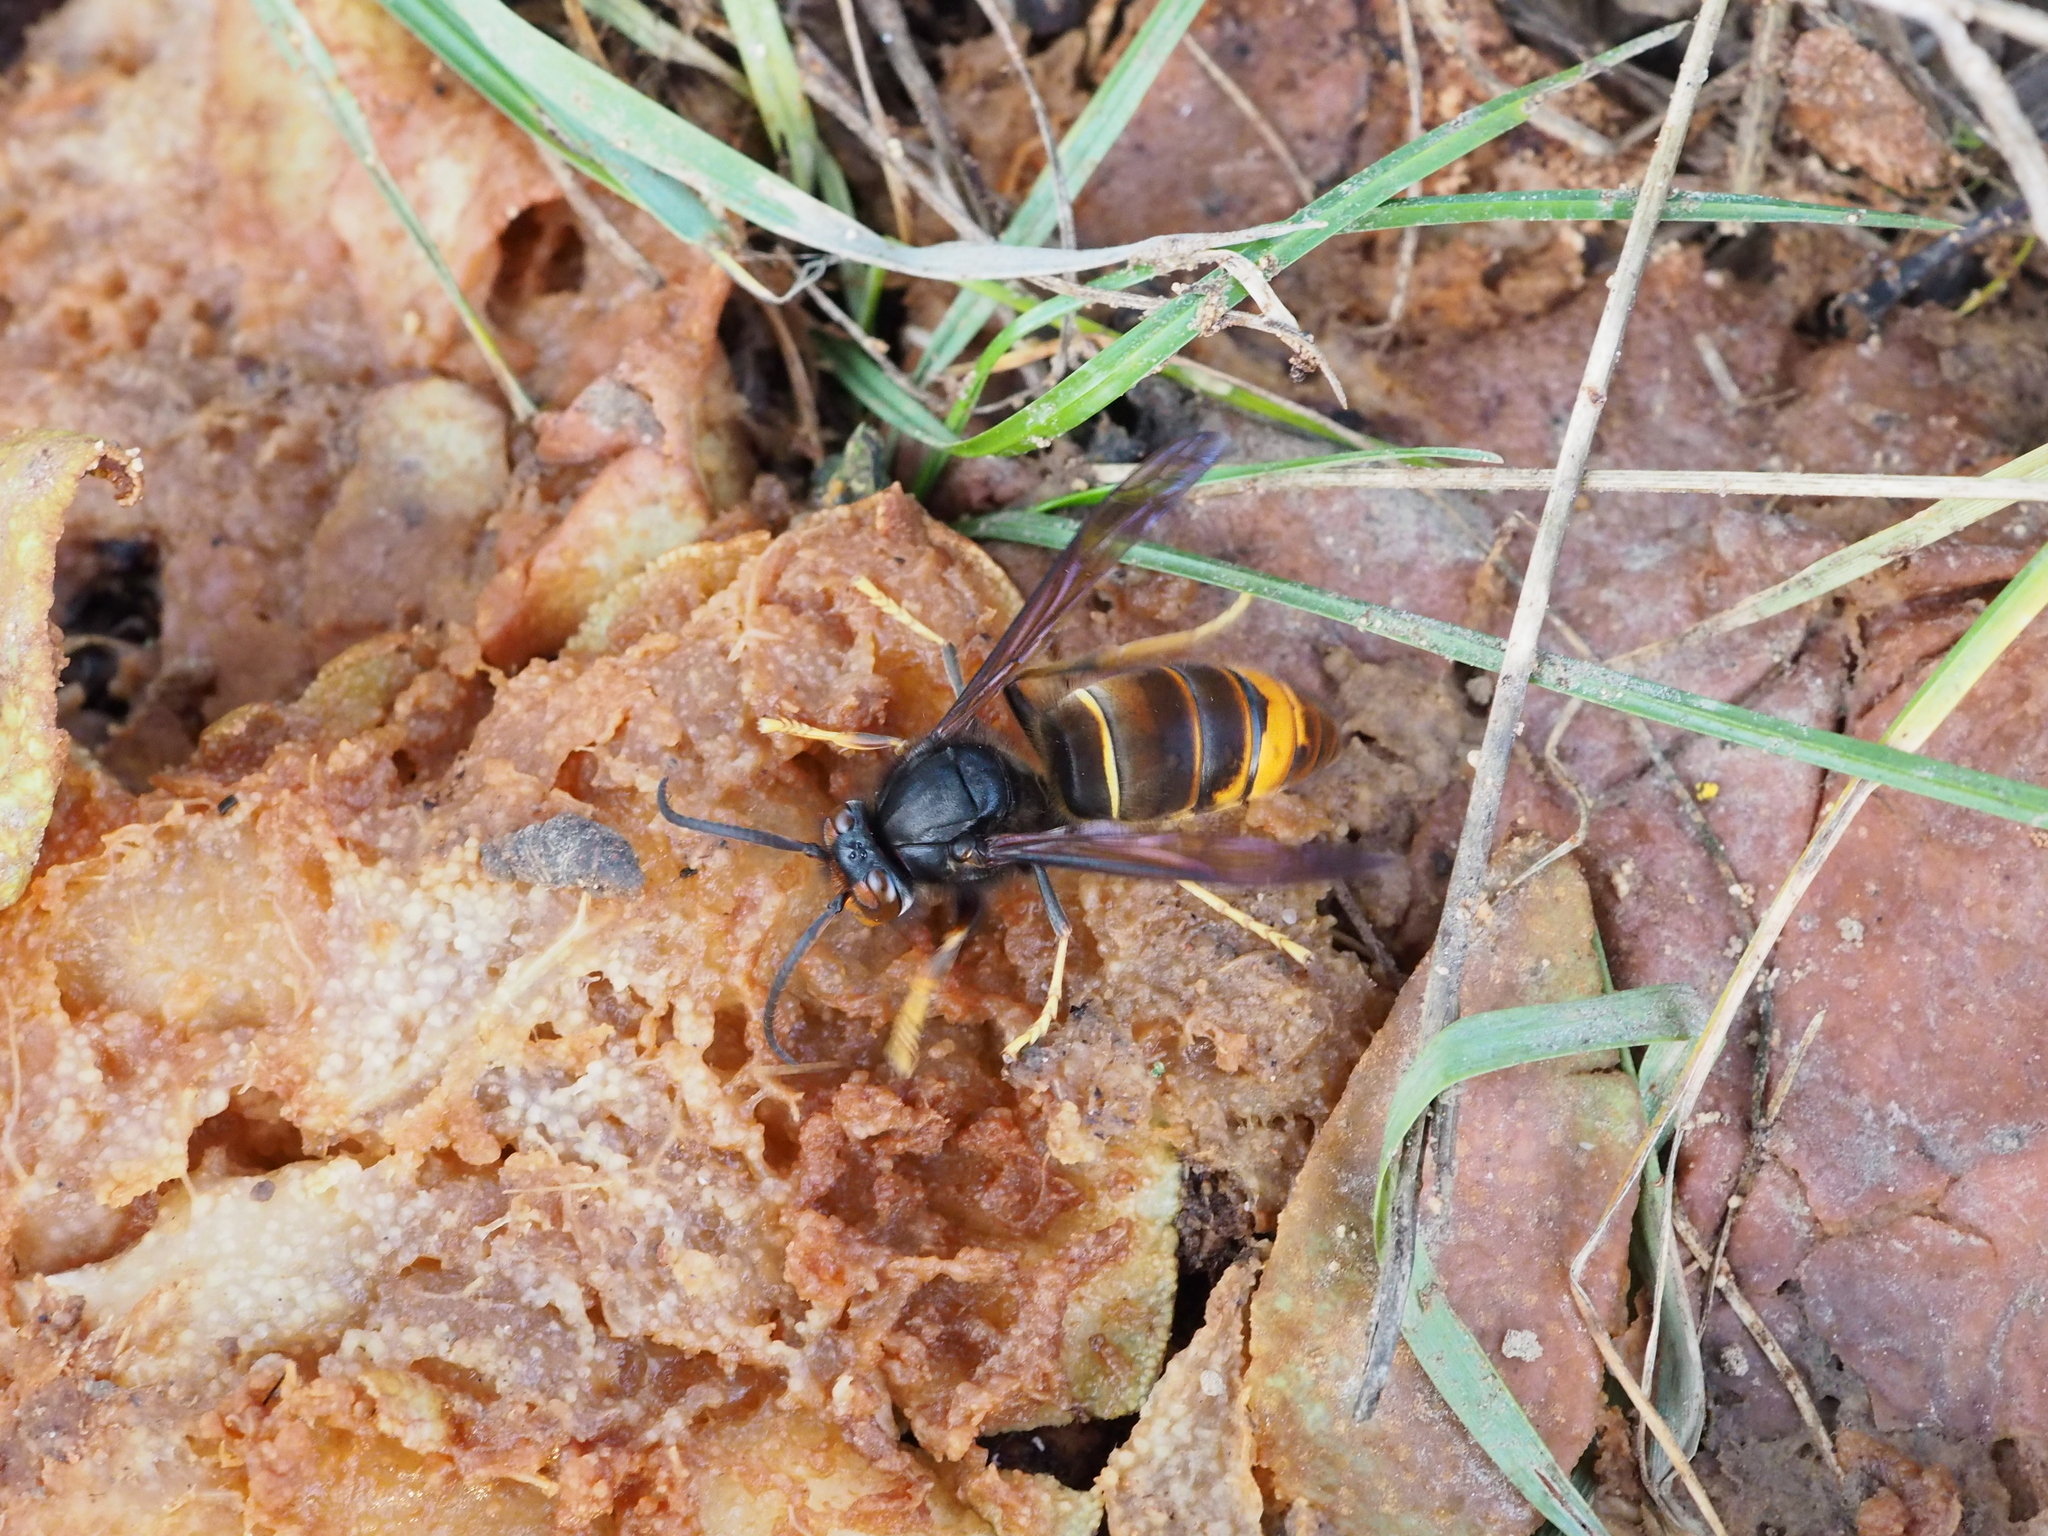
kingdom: Animalia
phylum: Arthropoda
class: Insecta
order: Hymenoptera
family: Vespidae
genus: Vespa
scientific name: Vespa velutina
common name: Asian hornet
